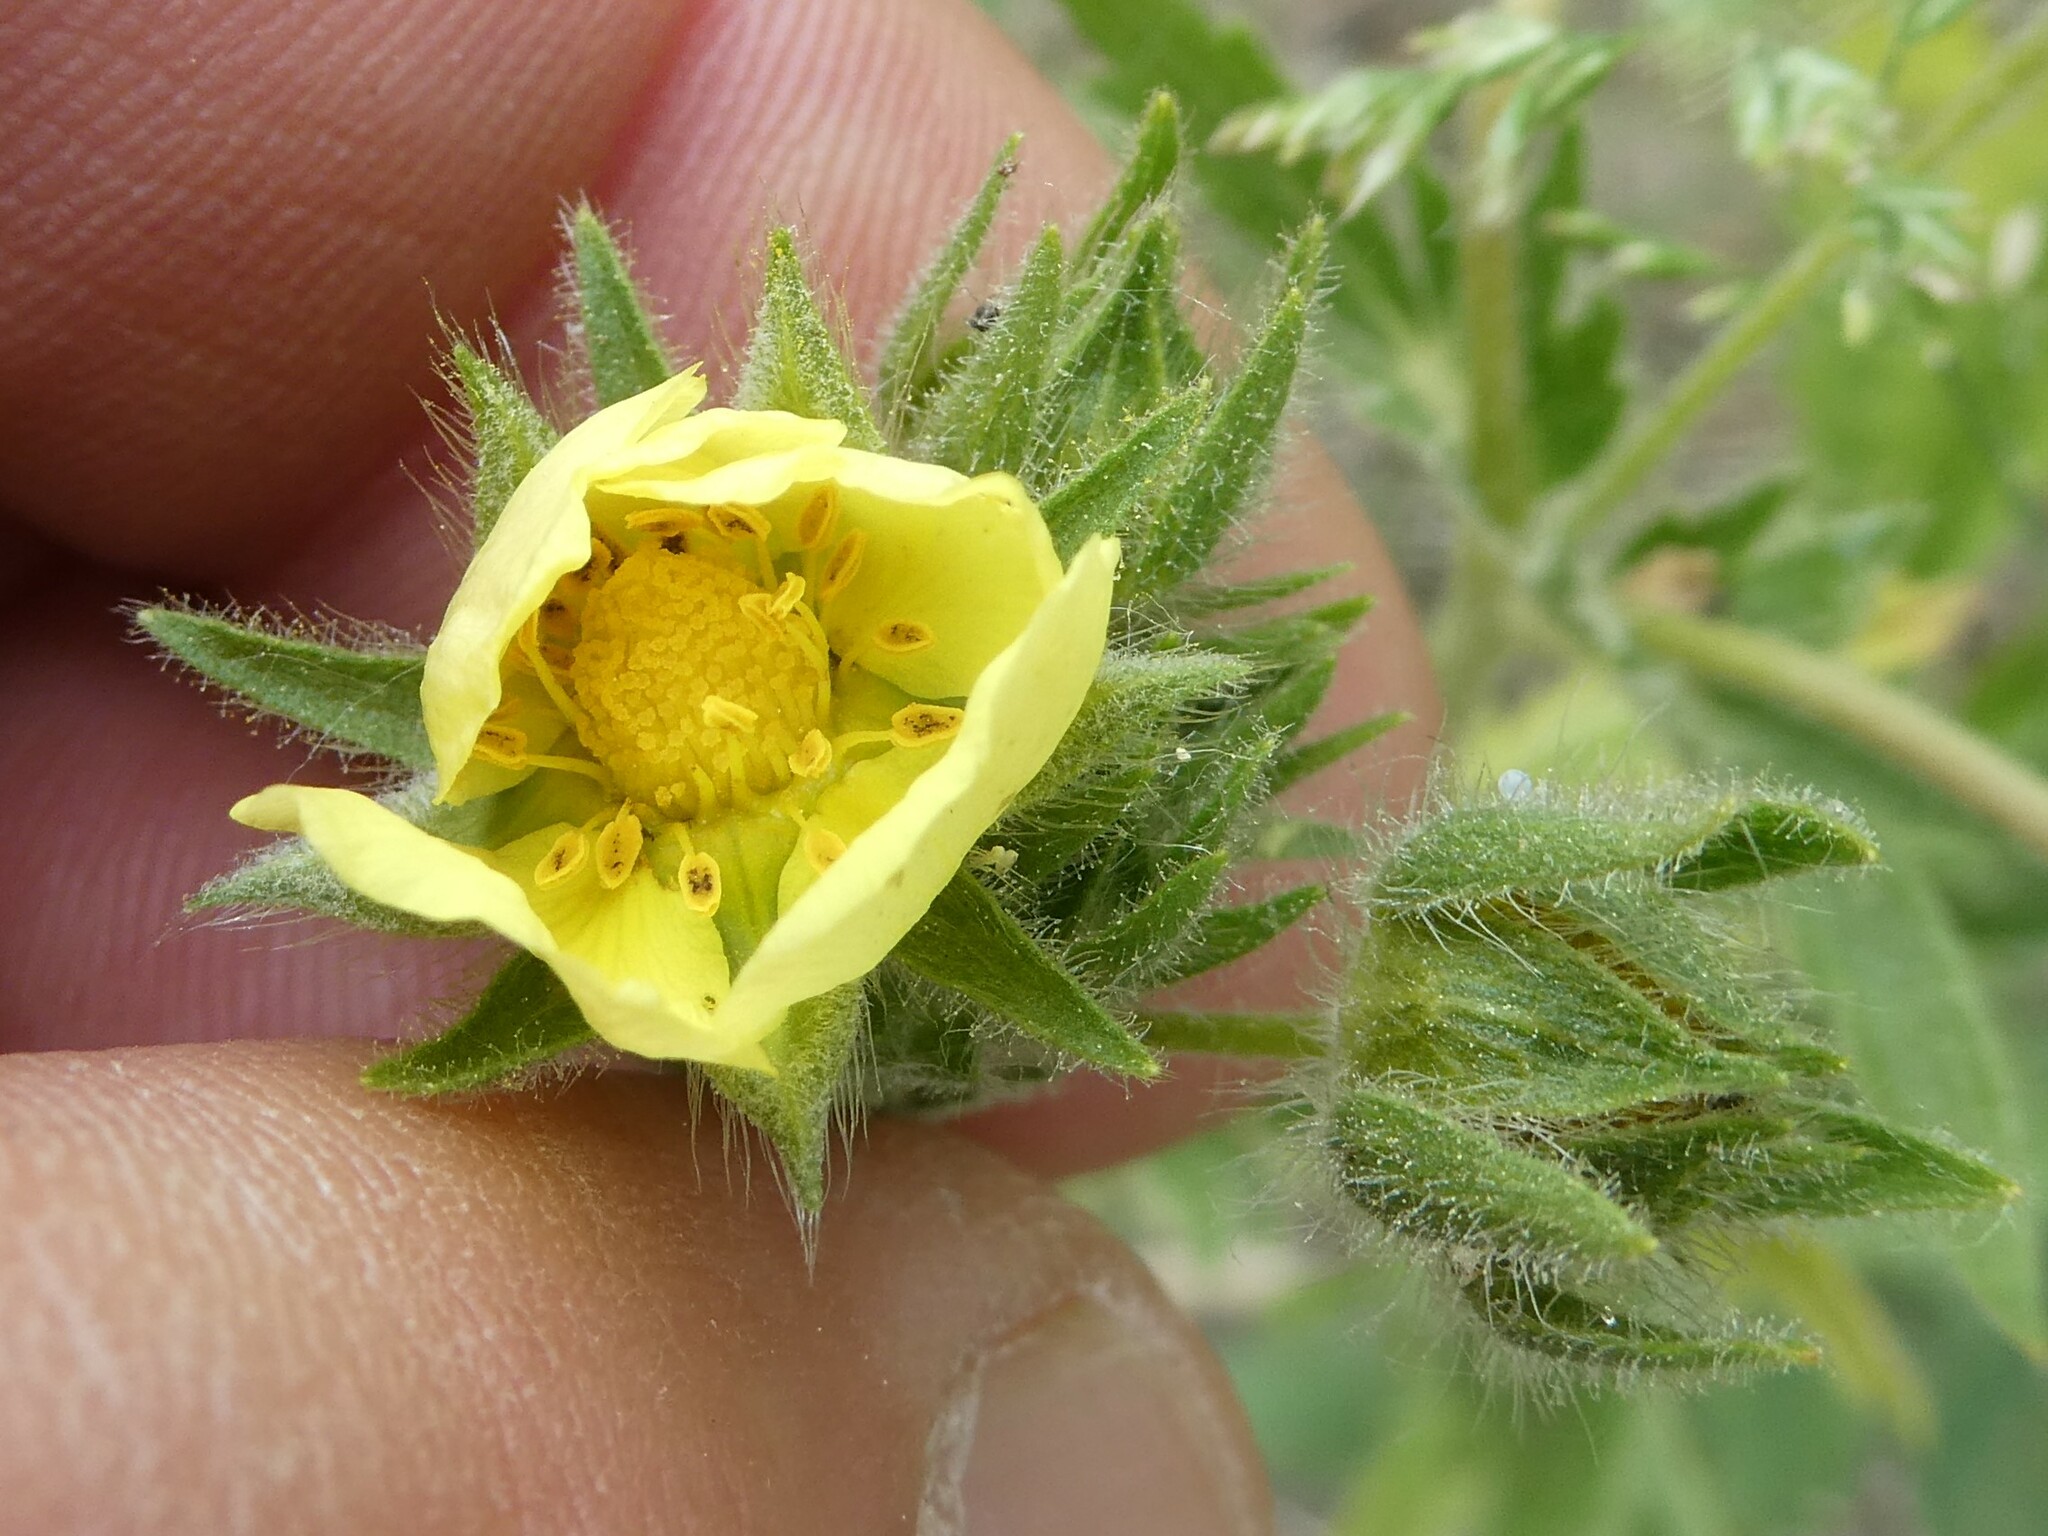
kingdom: Plantae
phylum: Tracheophyta
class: Magnoliopsida
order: Rosales
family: Rosaceae
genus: Potentilla
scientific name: Potentilla recta
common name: Sulphur cinquefoil
